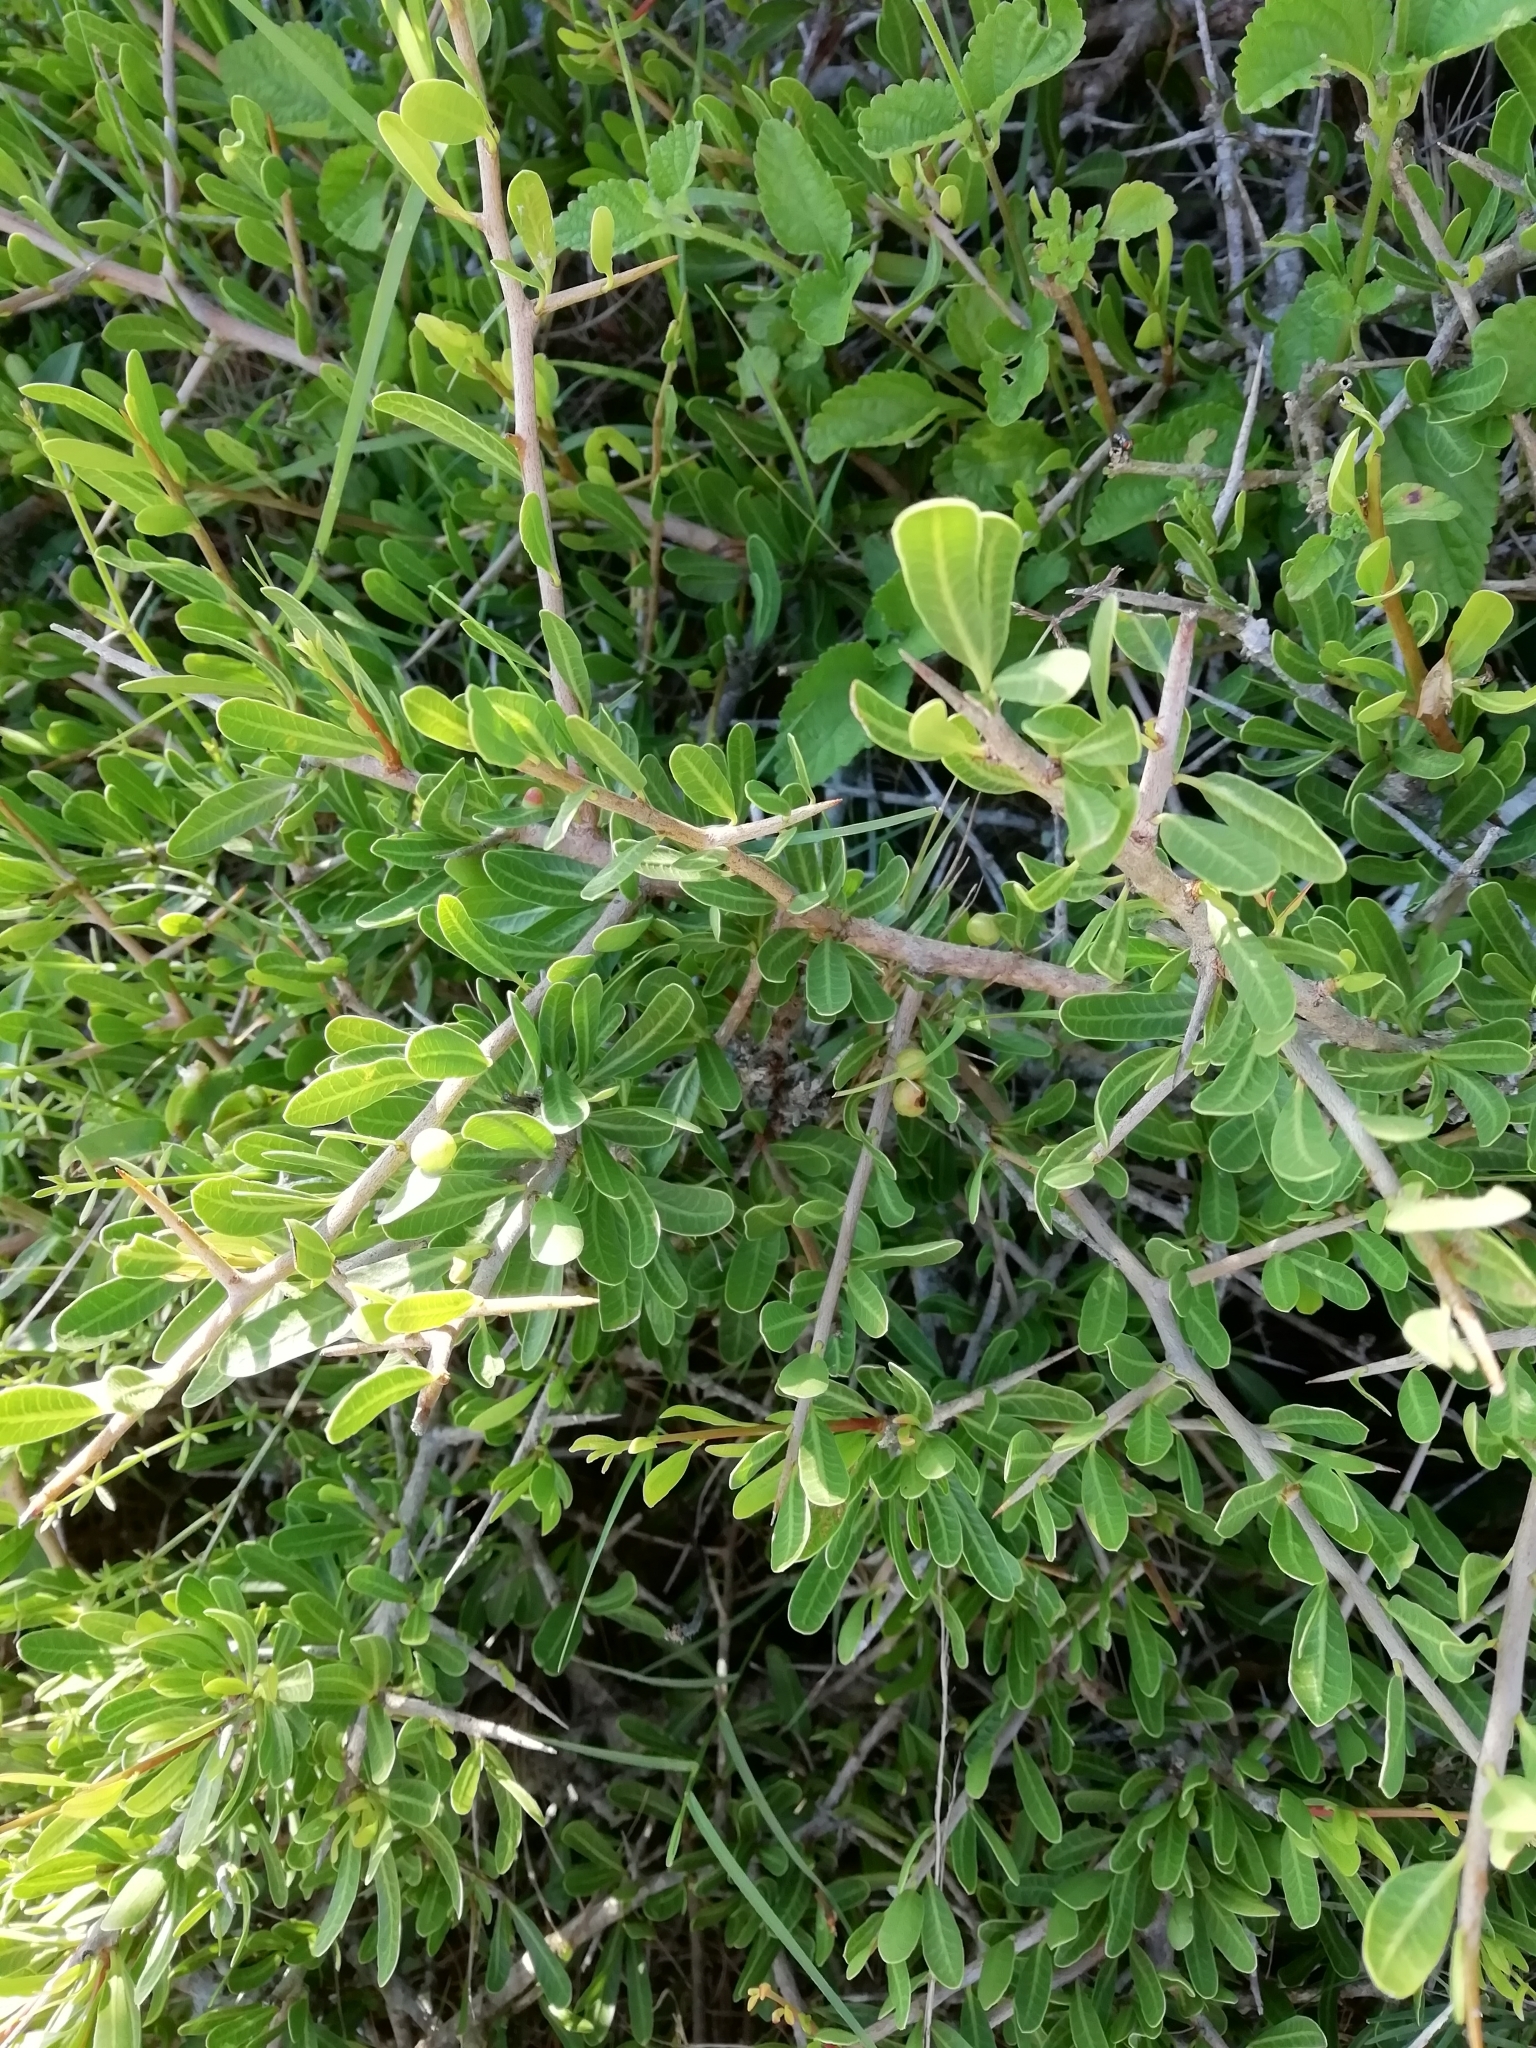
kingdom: Plantae
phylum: Tracheophyta
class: Magnoliopsida
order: Sapindales
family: Anacardiaceae
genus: Schinus
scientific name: Schinus longifolia
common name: Longleaf peppertree
